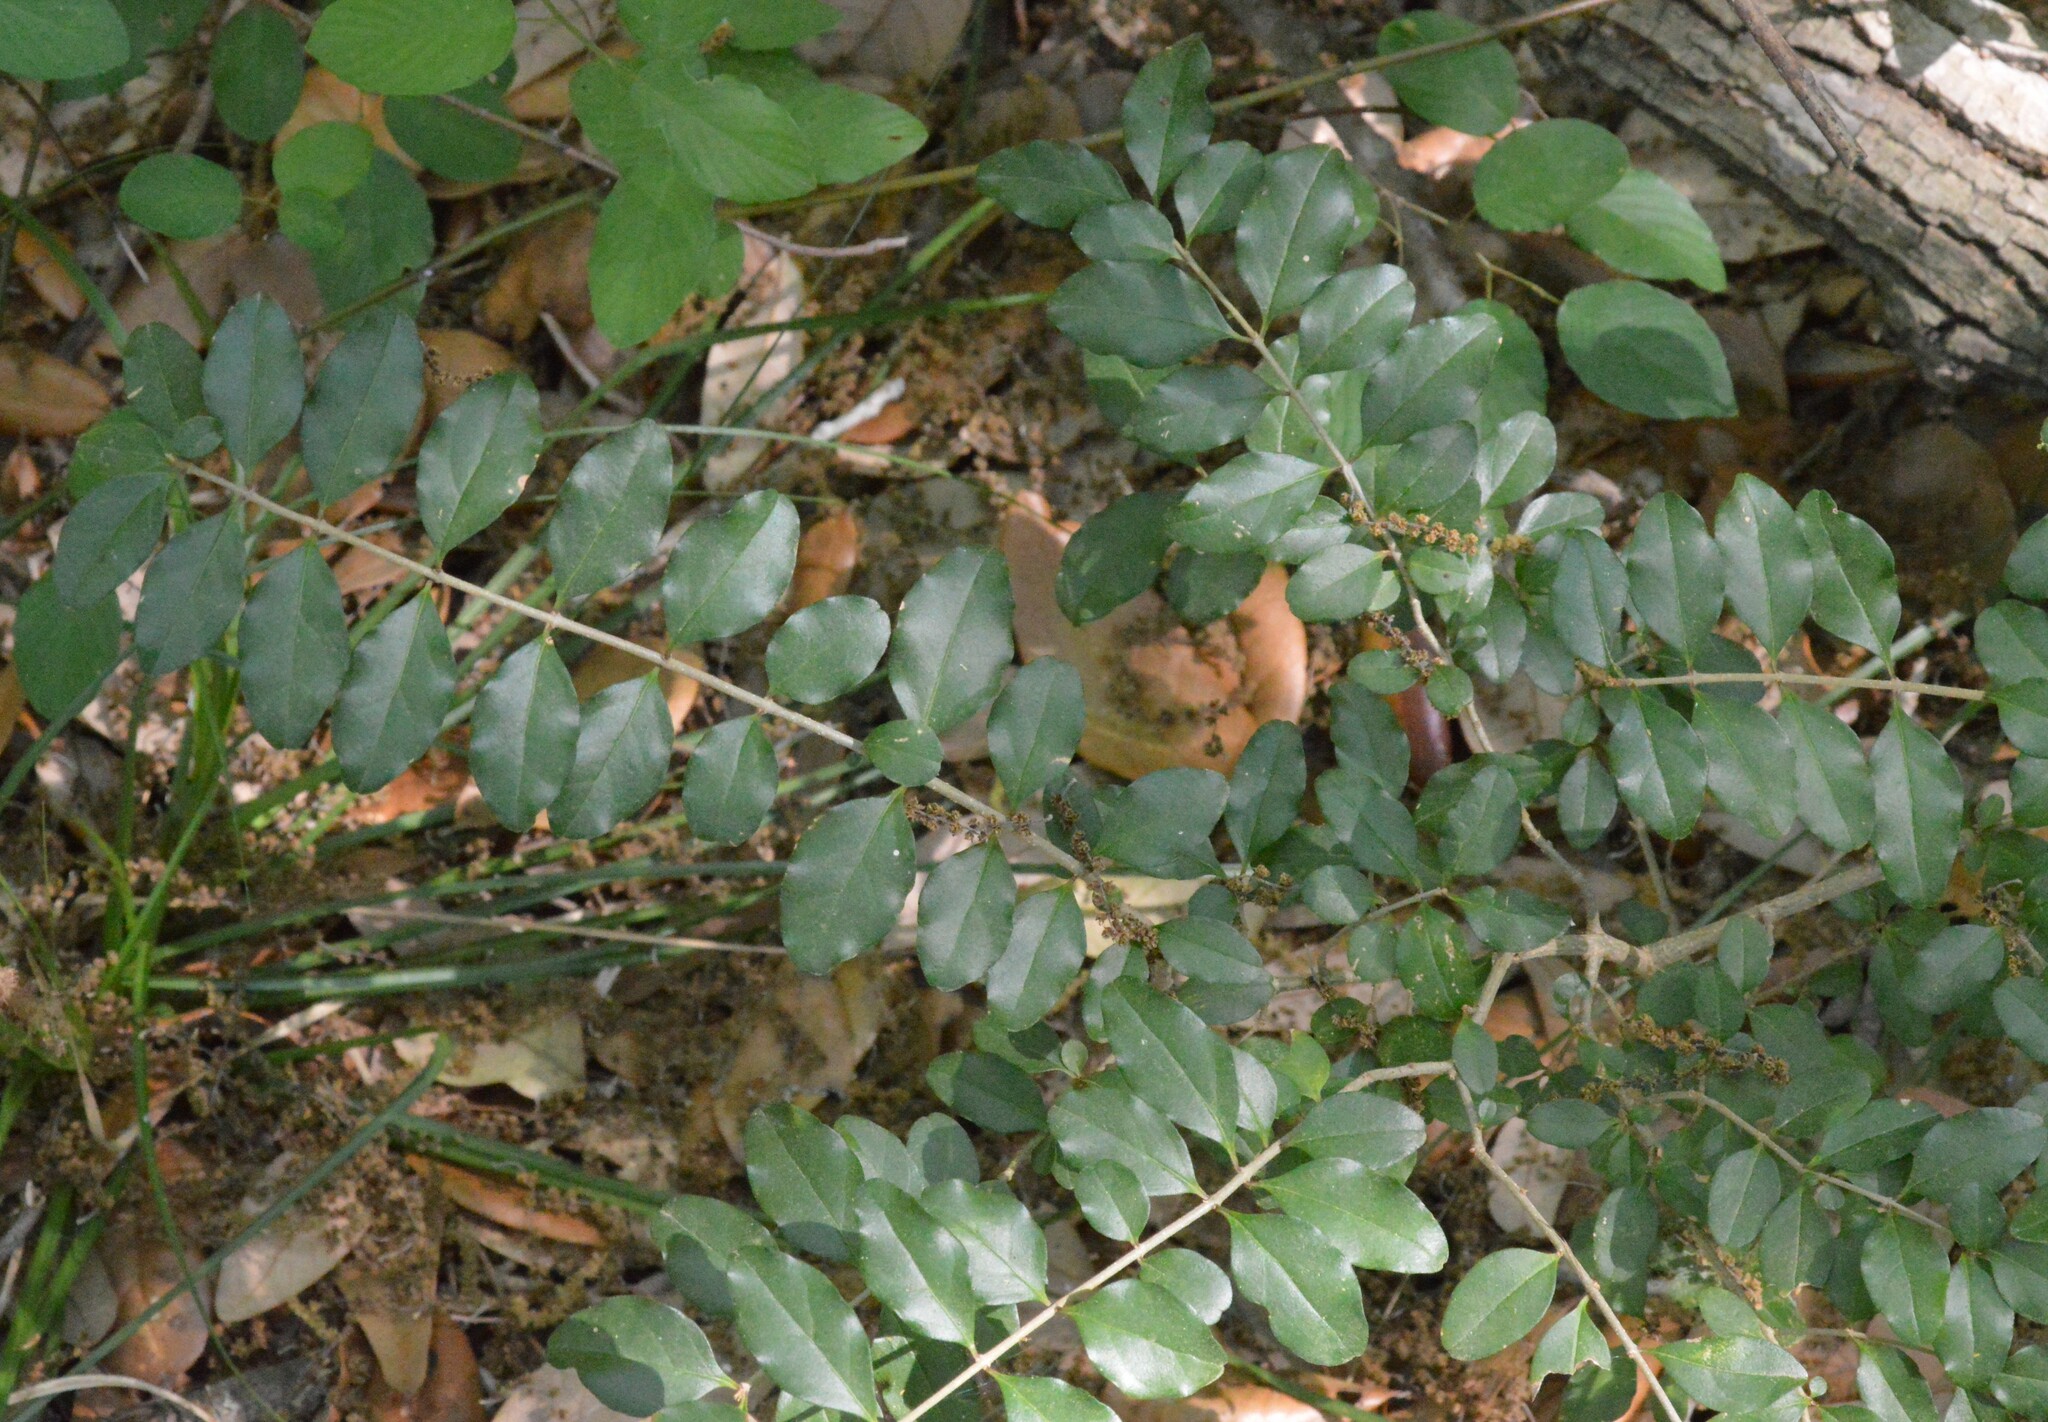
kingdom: Plantae
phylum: Tracheophyta
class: Magnoliopsida
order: Lamiales
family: Oleaceae
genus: Ligustrum
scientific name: Ligustrum sinense
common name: Chinese privet
